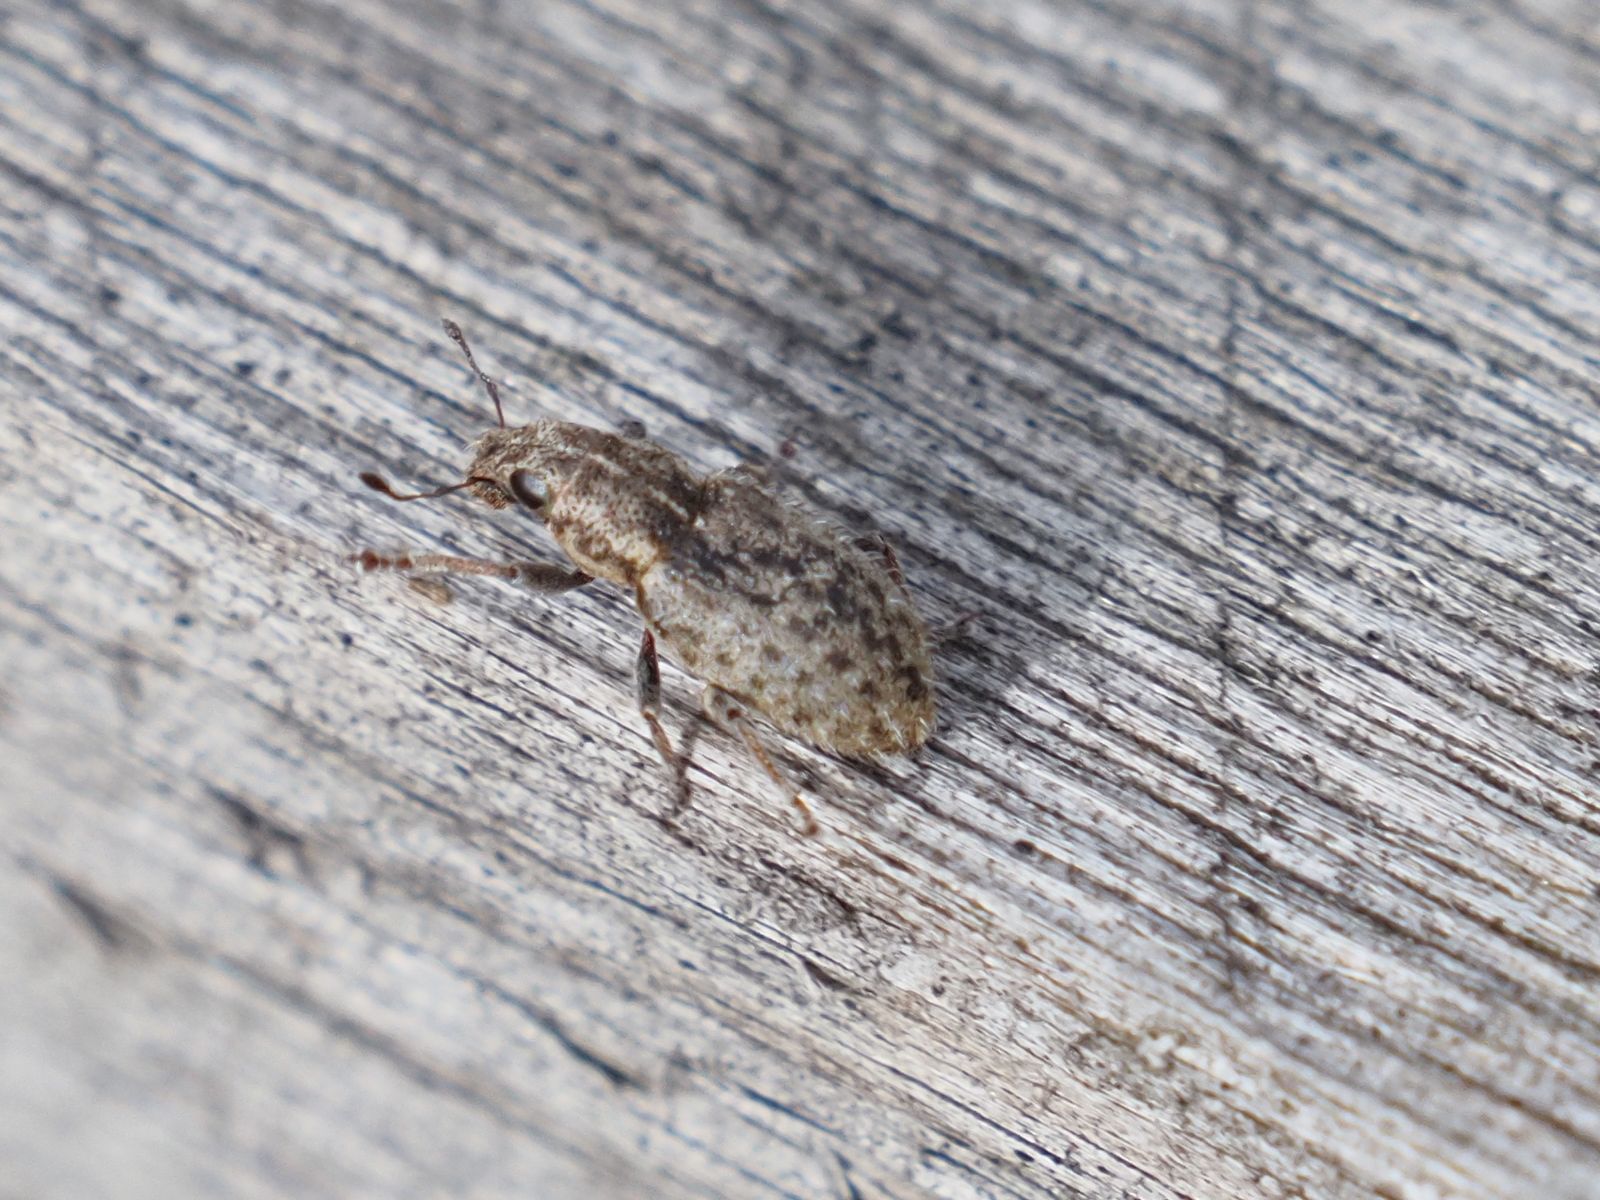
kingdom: Animalia
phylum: Arthropoda
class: Insecta
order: Coleoptera
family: Curculionidae
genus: Sitona
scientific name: Sitona hispidulus
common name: Clover weevil
